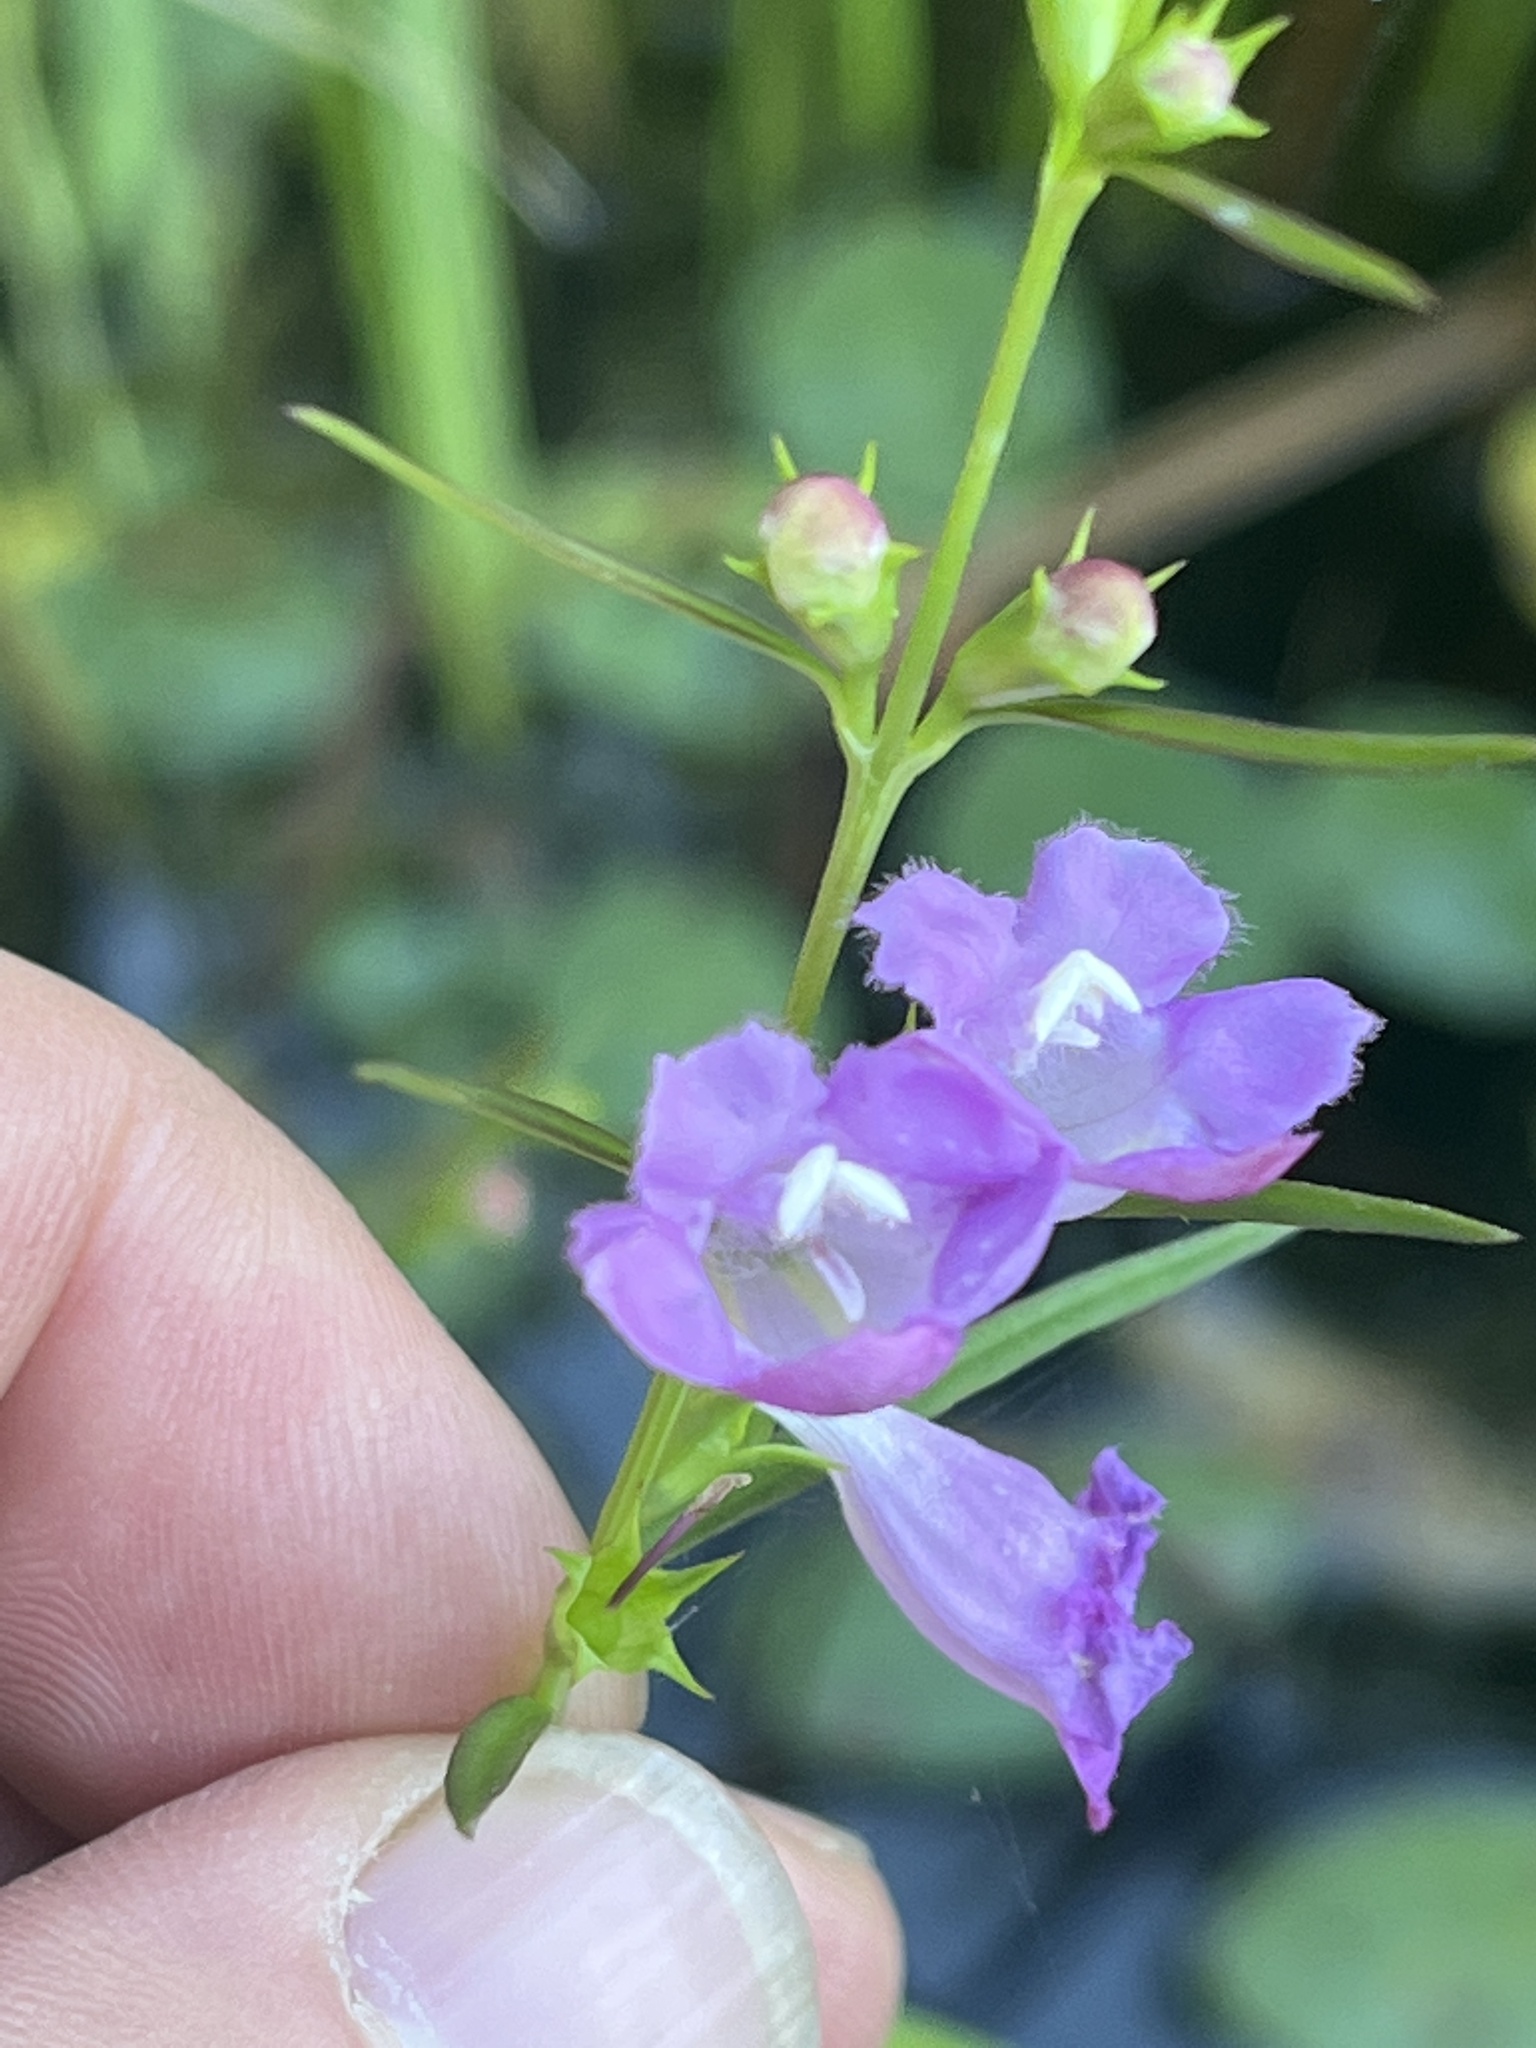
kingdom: Plantae
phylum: Tracheophyta
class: Magnoliopsida
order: Lamiales
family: Orobanchaceae
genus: Agalinis
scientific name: Agalinis purpurea
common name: Purple false foxglove
